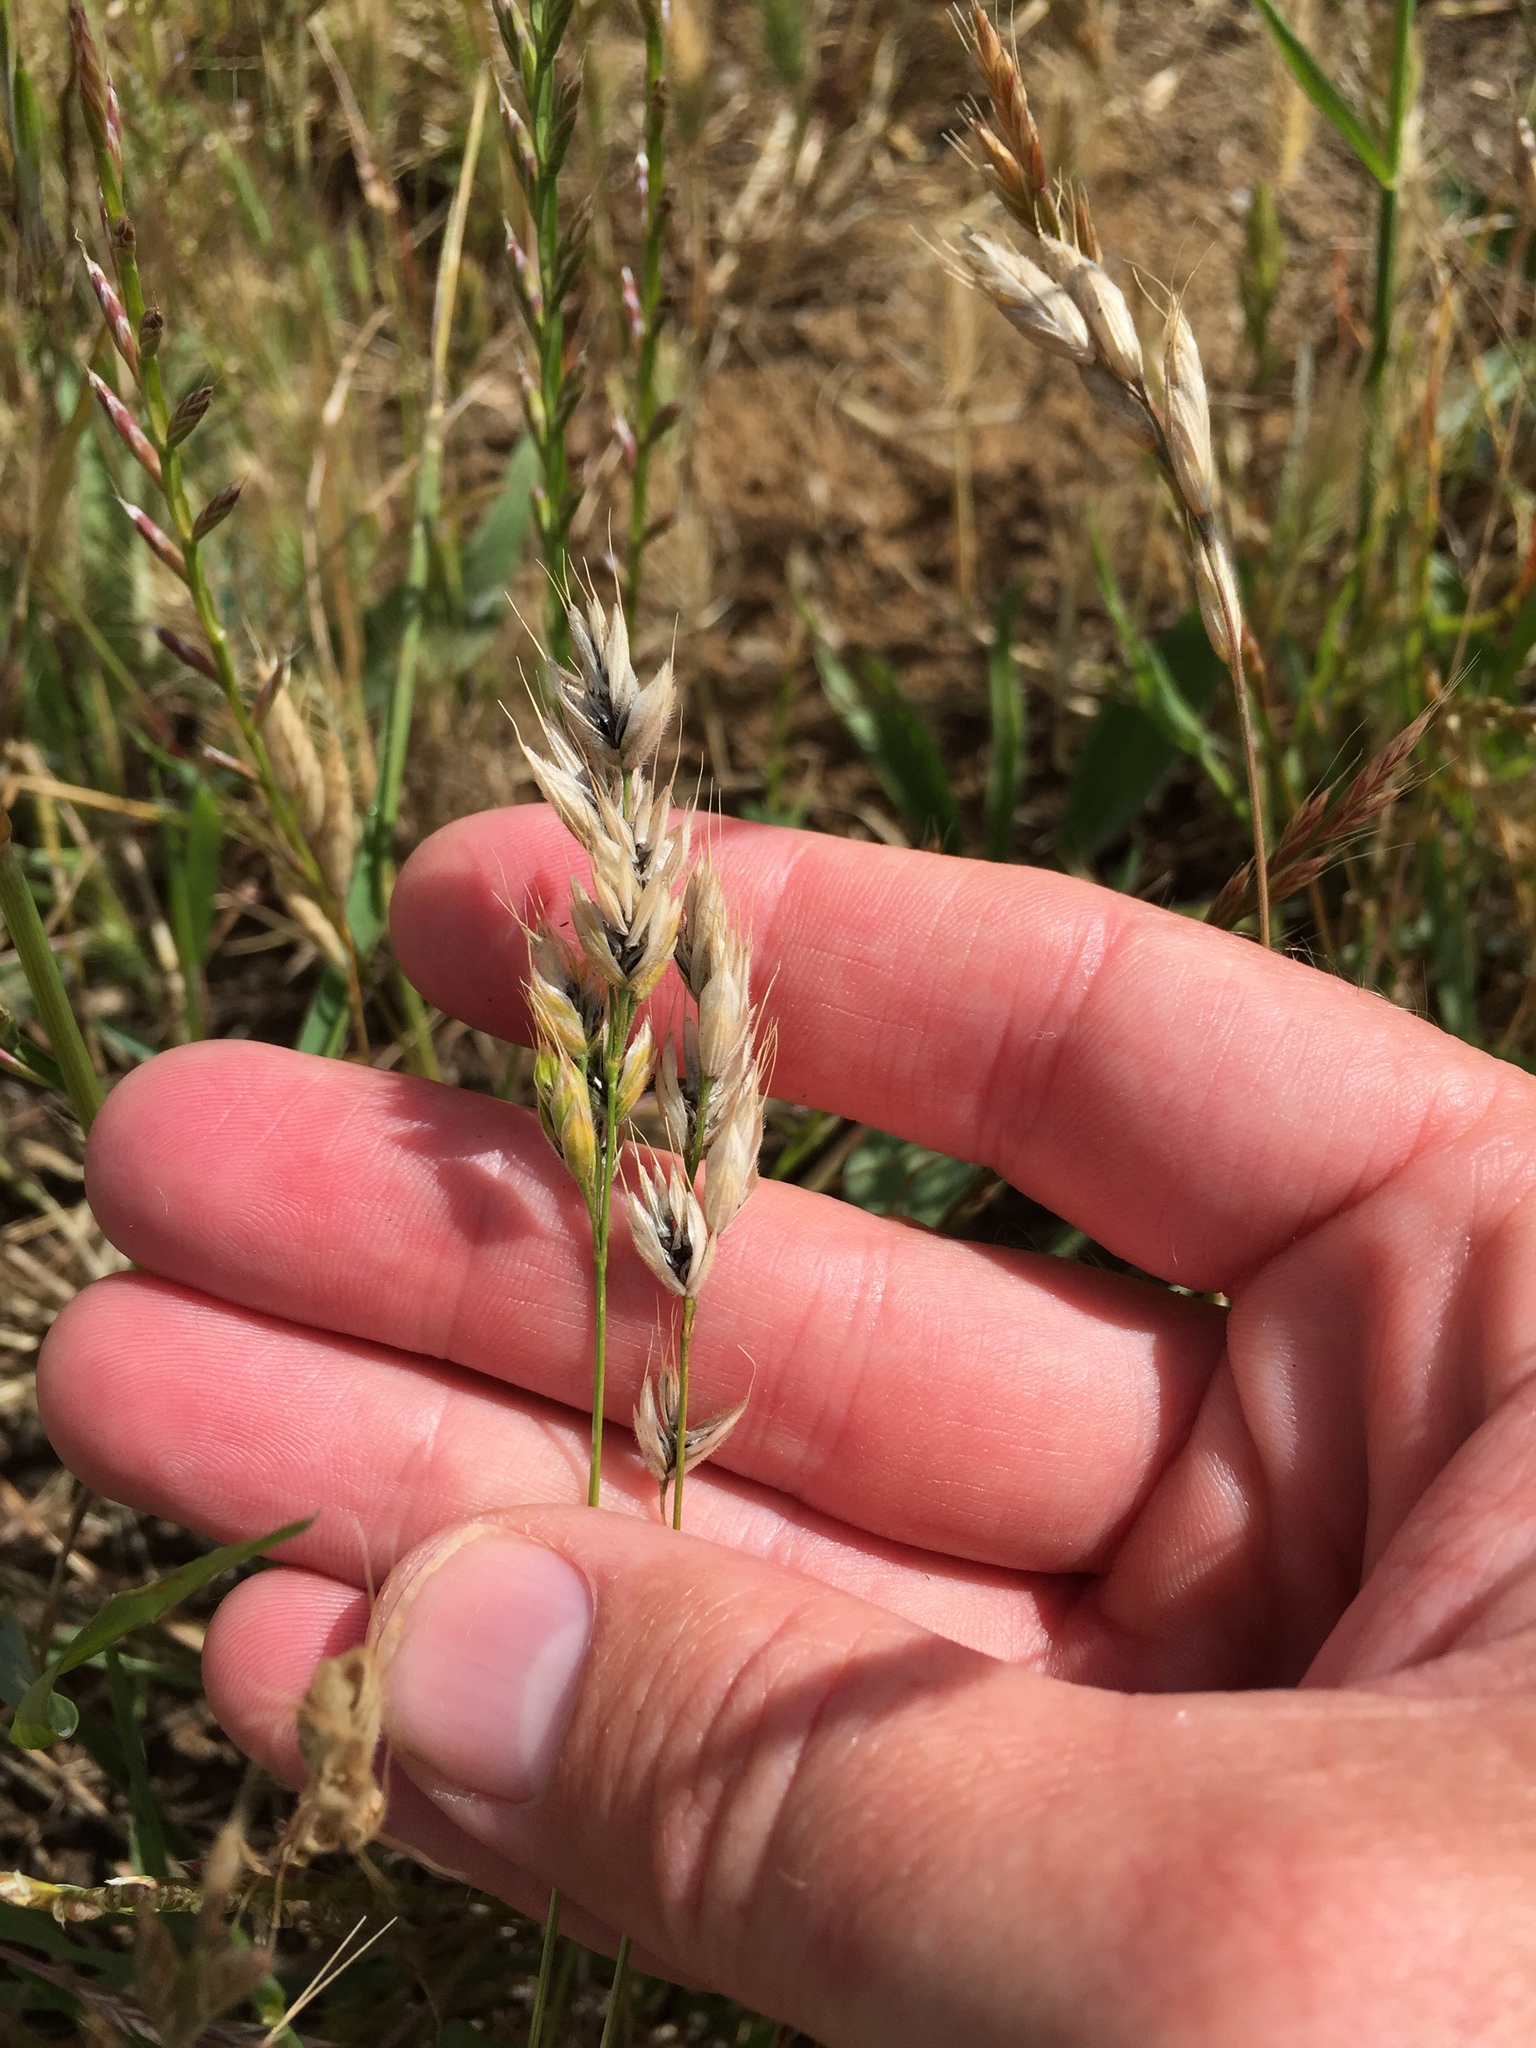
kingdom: Fungi
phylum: Basidiomycota
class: Ustilaginomycetes
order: Ustilaginales
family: Ustilaginaceae
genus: Ustilago
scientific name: Ustilago bullata
